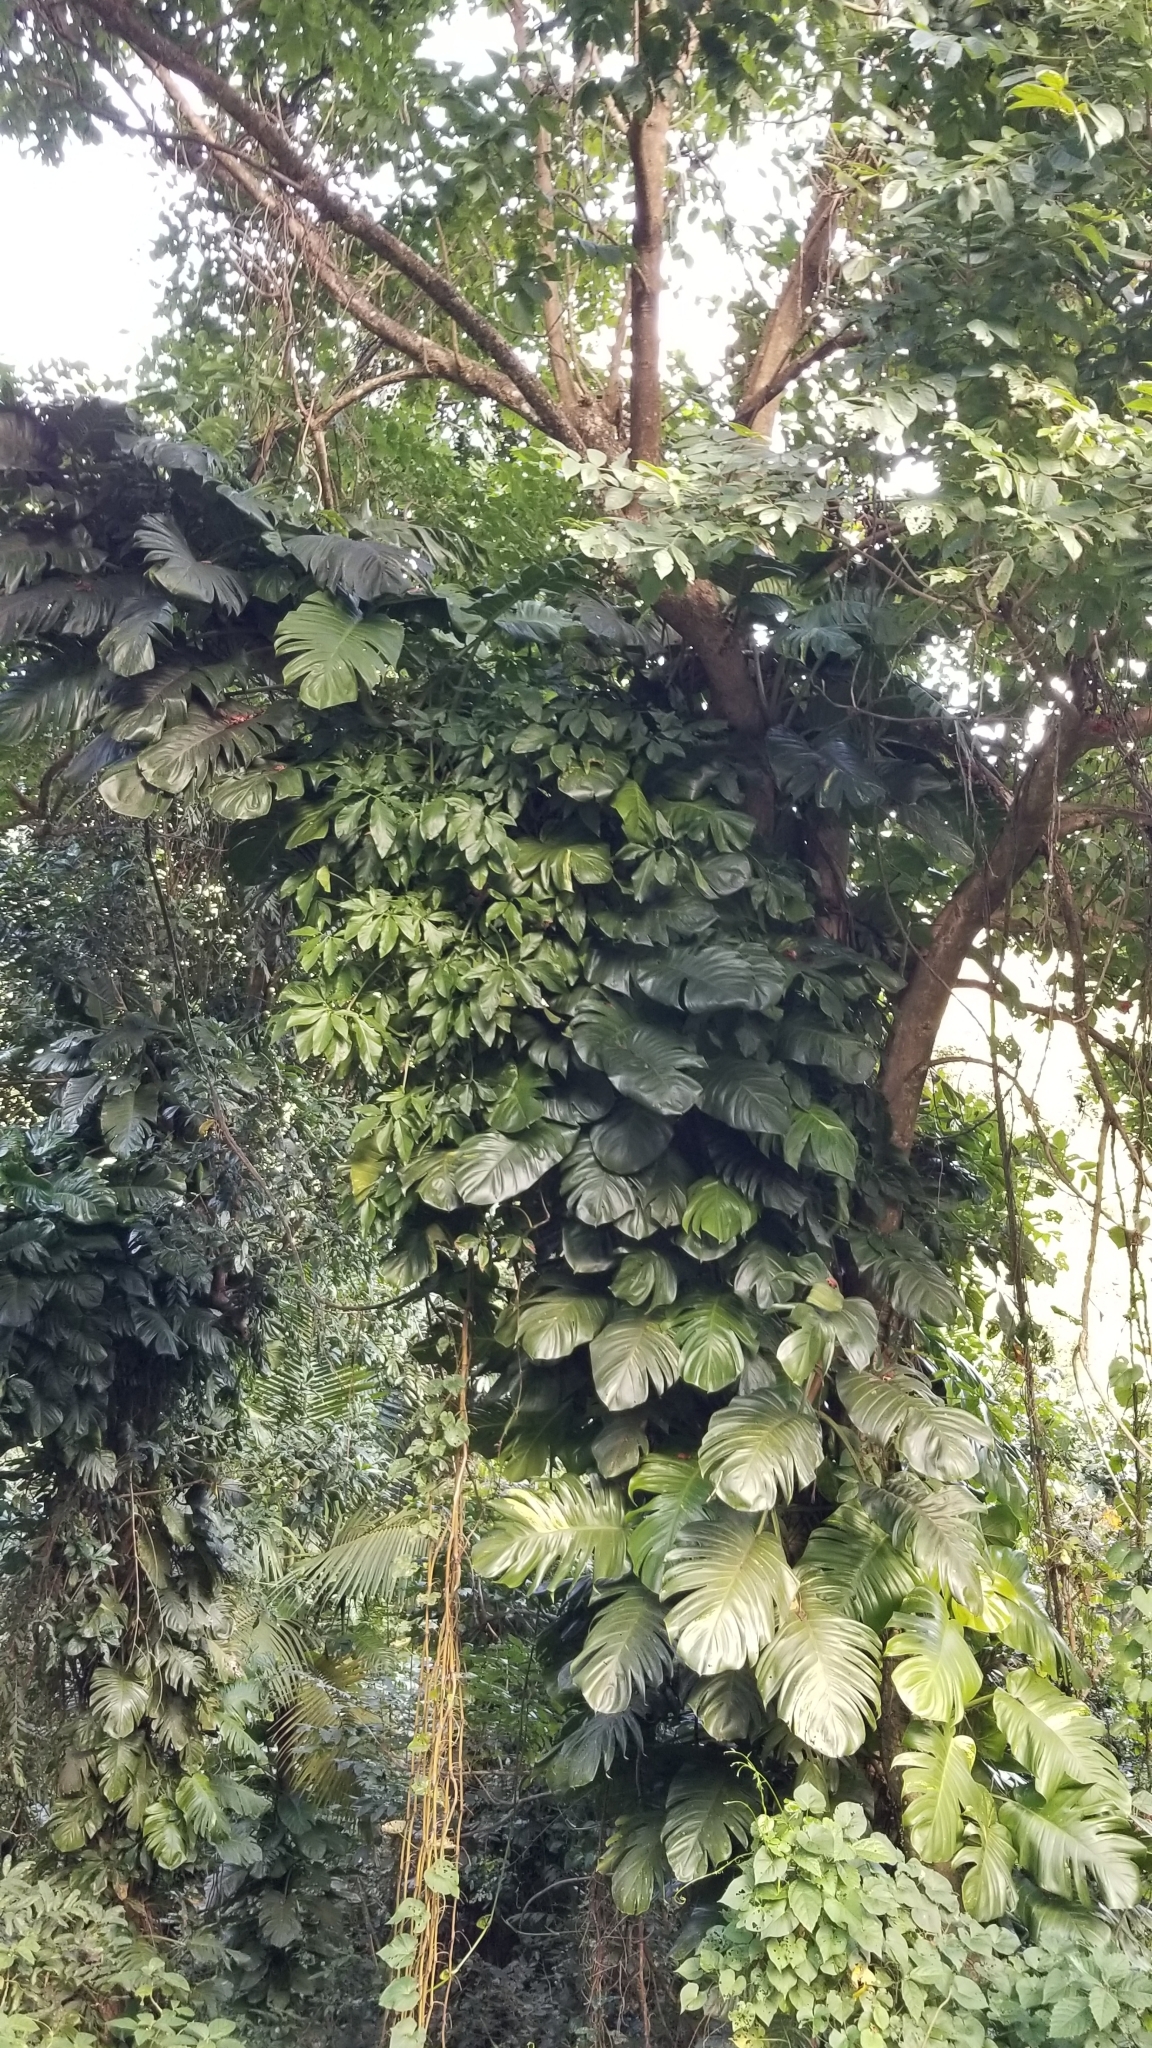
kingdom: Plantae
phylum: Tracheophyta
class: Liliopsida
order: Alismatales
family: Araceae
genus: Epipremnum
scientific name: Epipremnum aureum
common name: Golden hunter's-robe
